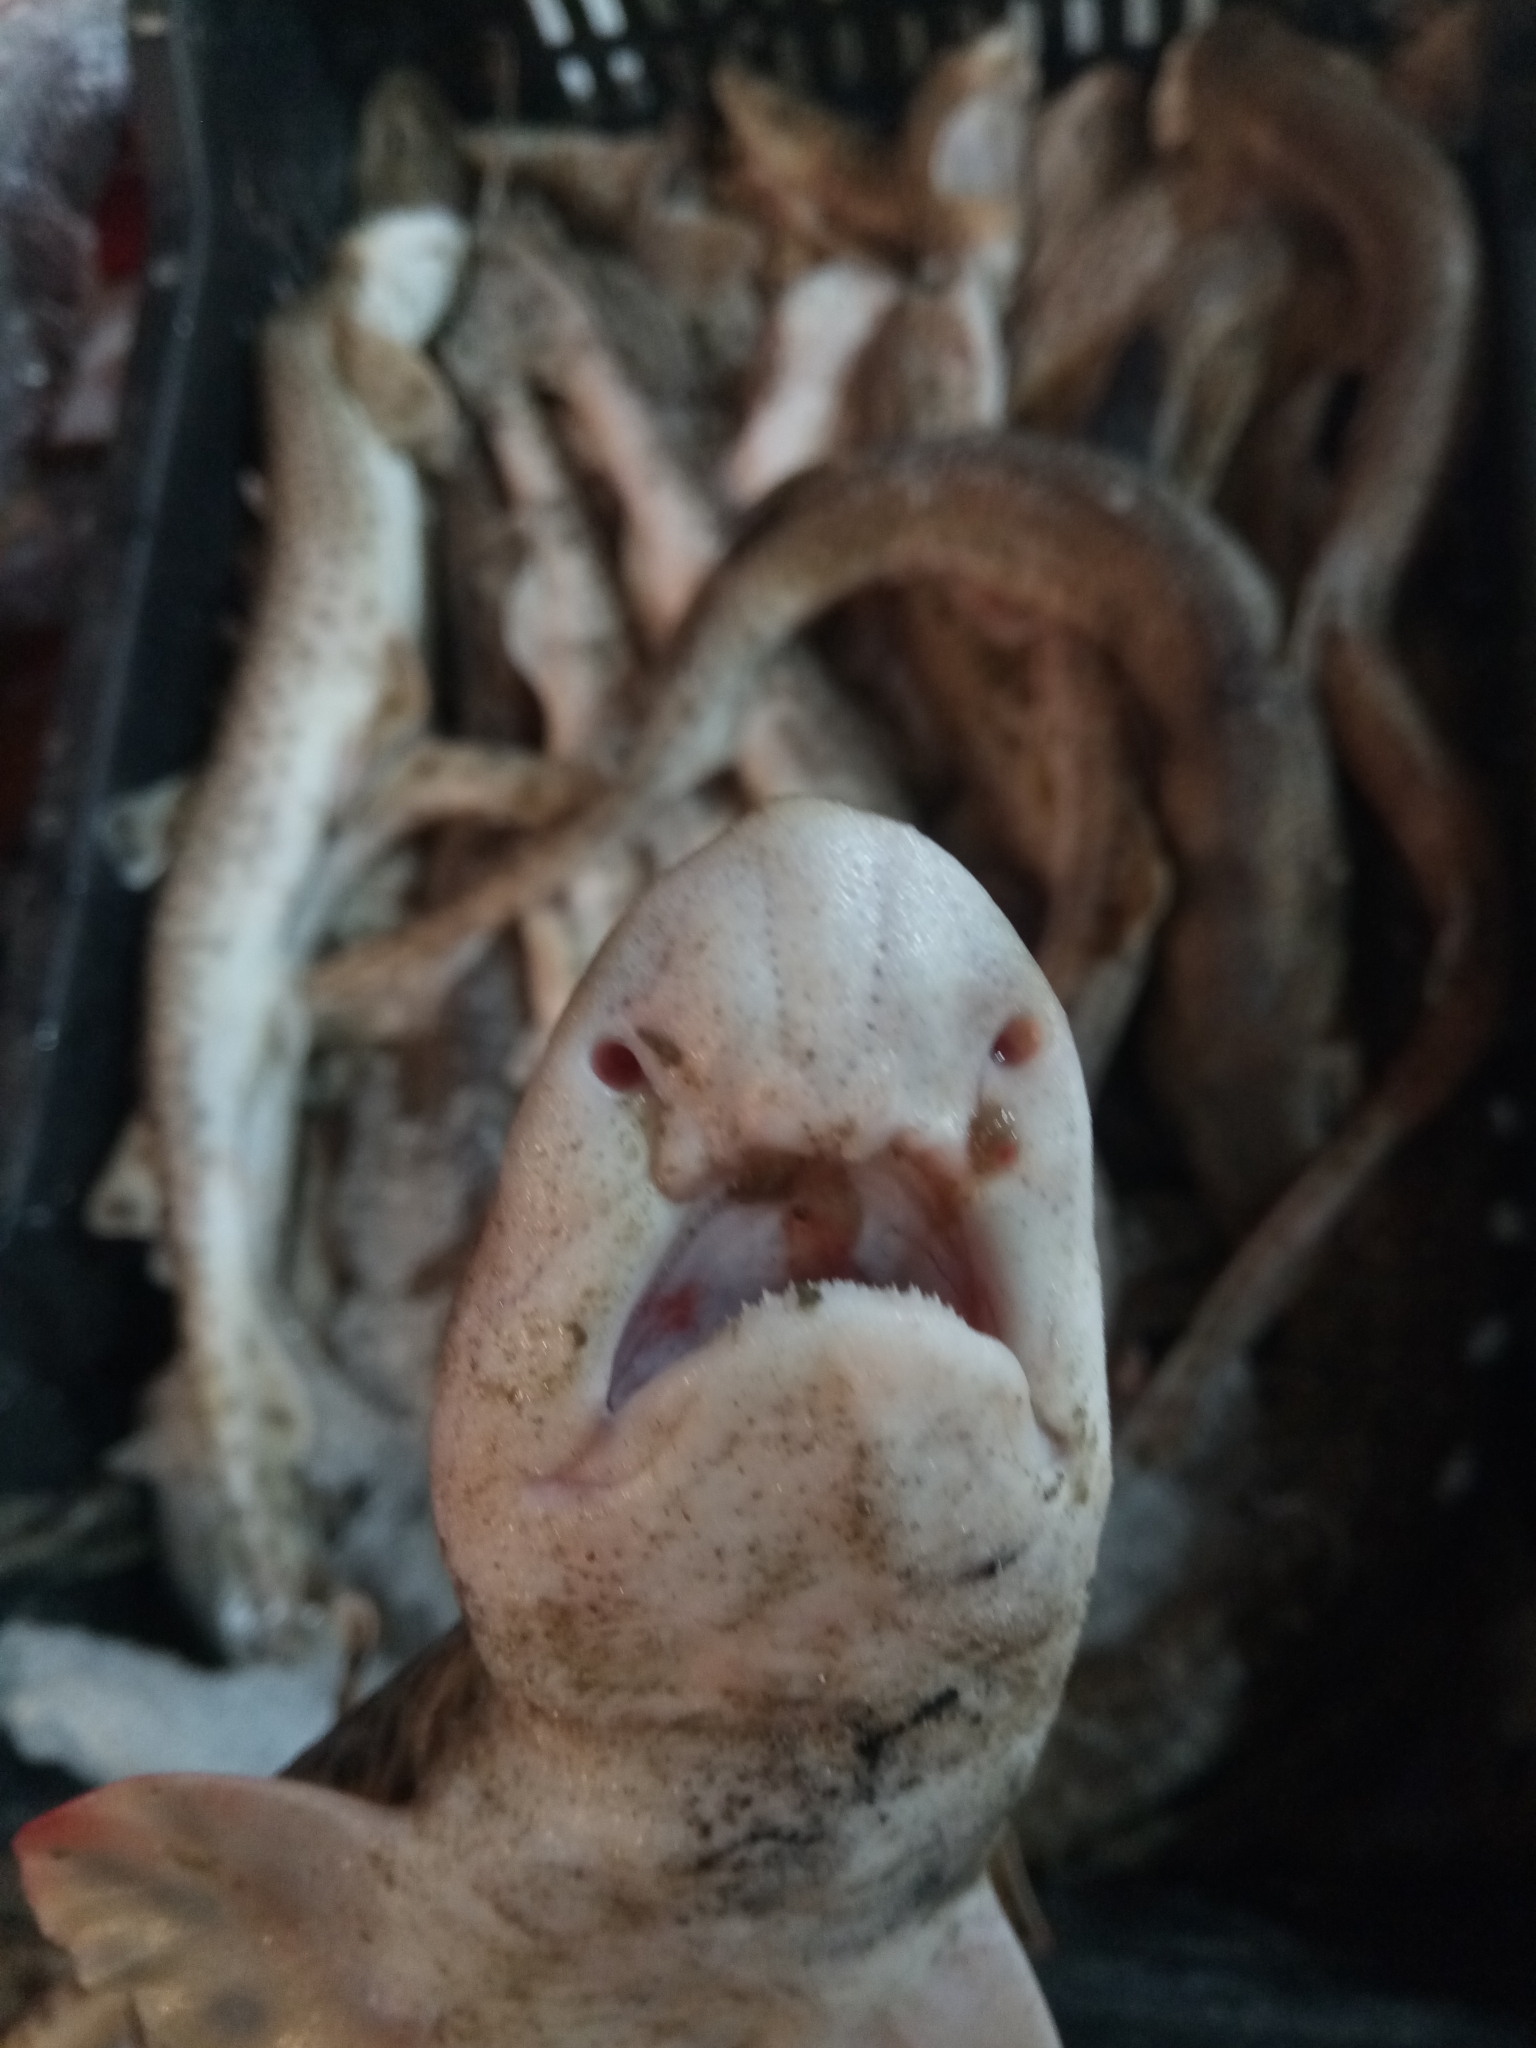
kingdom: Animalia
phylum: Chordata
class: Elasmobranchii
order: Carcharhiniformes
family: Scyliorhinidae
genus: Scyliorhinus
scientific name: Scyliorhinus canicula
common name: Lesser spotted dogfish
